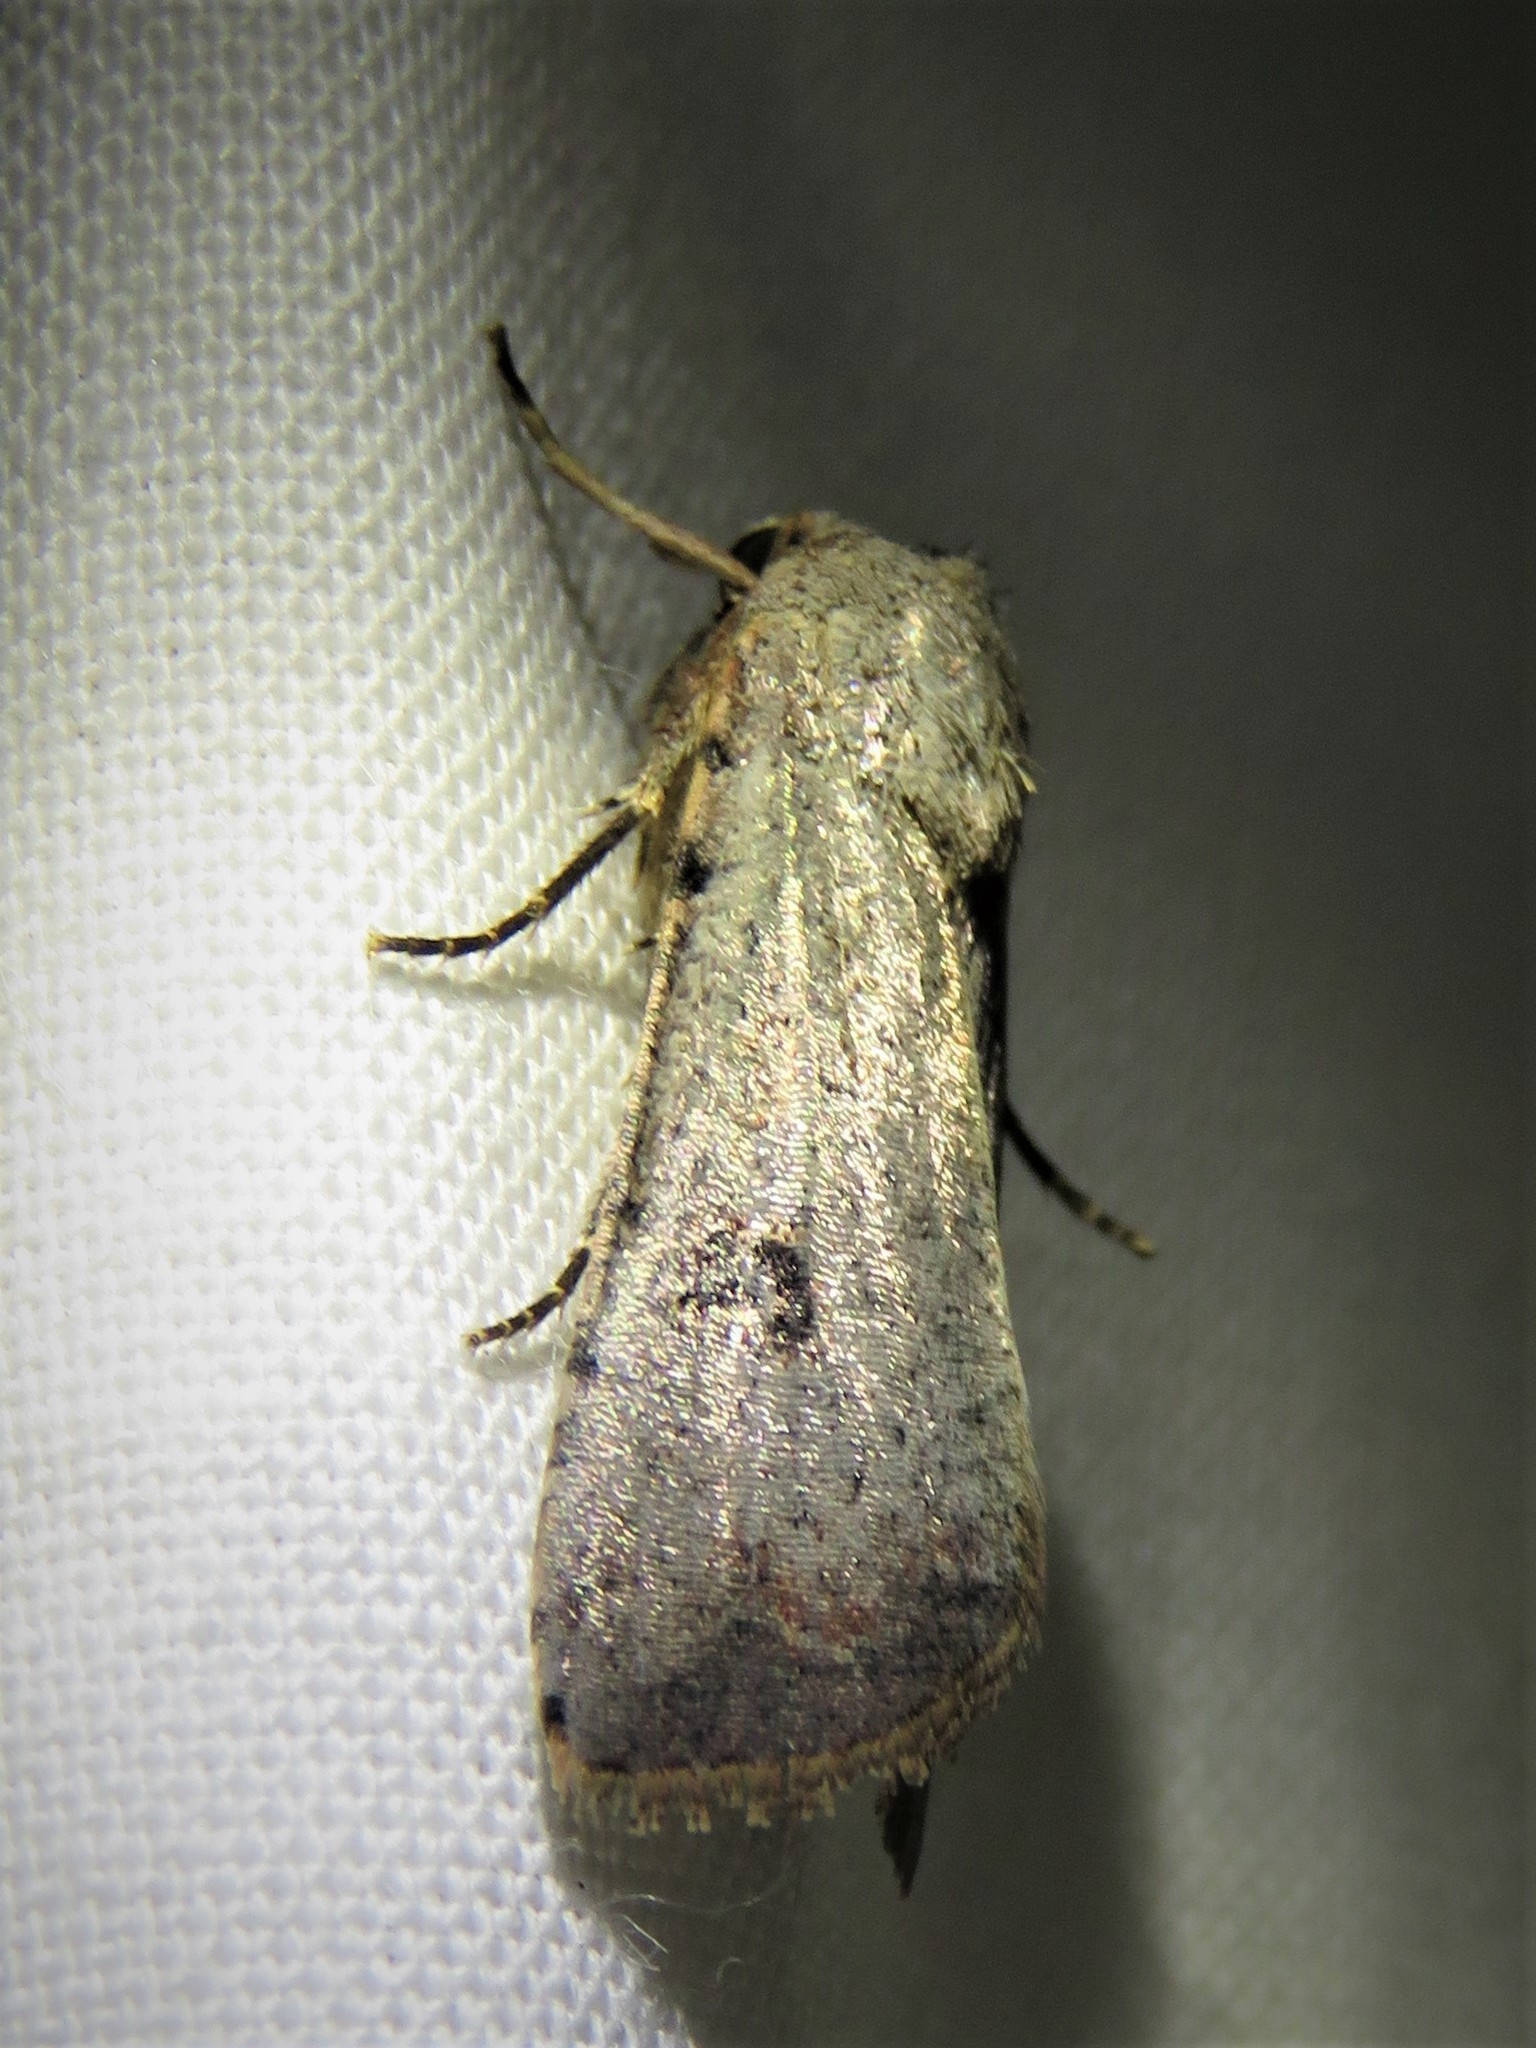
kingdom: Animalia
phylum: Arthropoda
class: Insecta
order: Lepidoptera
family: Noctuidae
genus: Anicla
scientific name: Anicla infecta
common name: Green cutworm
